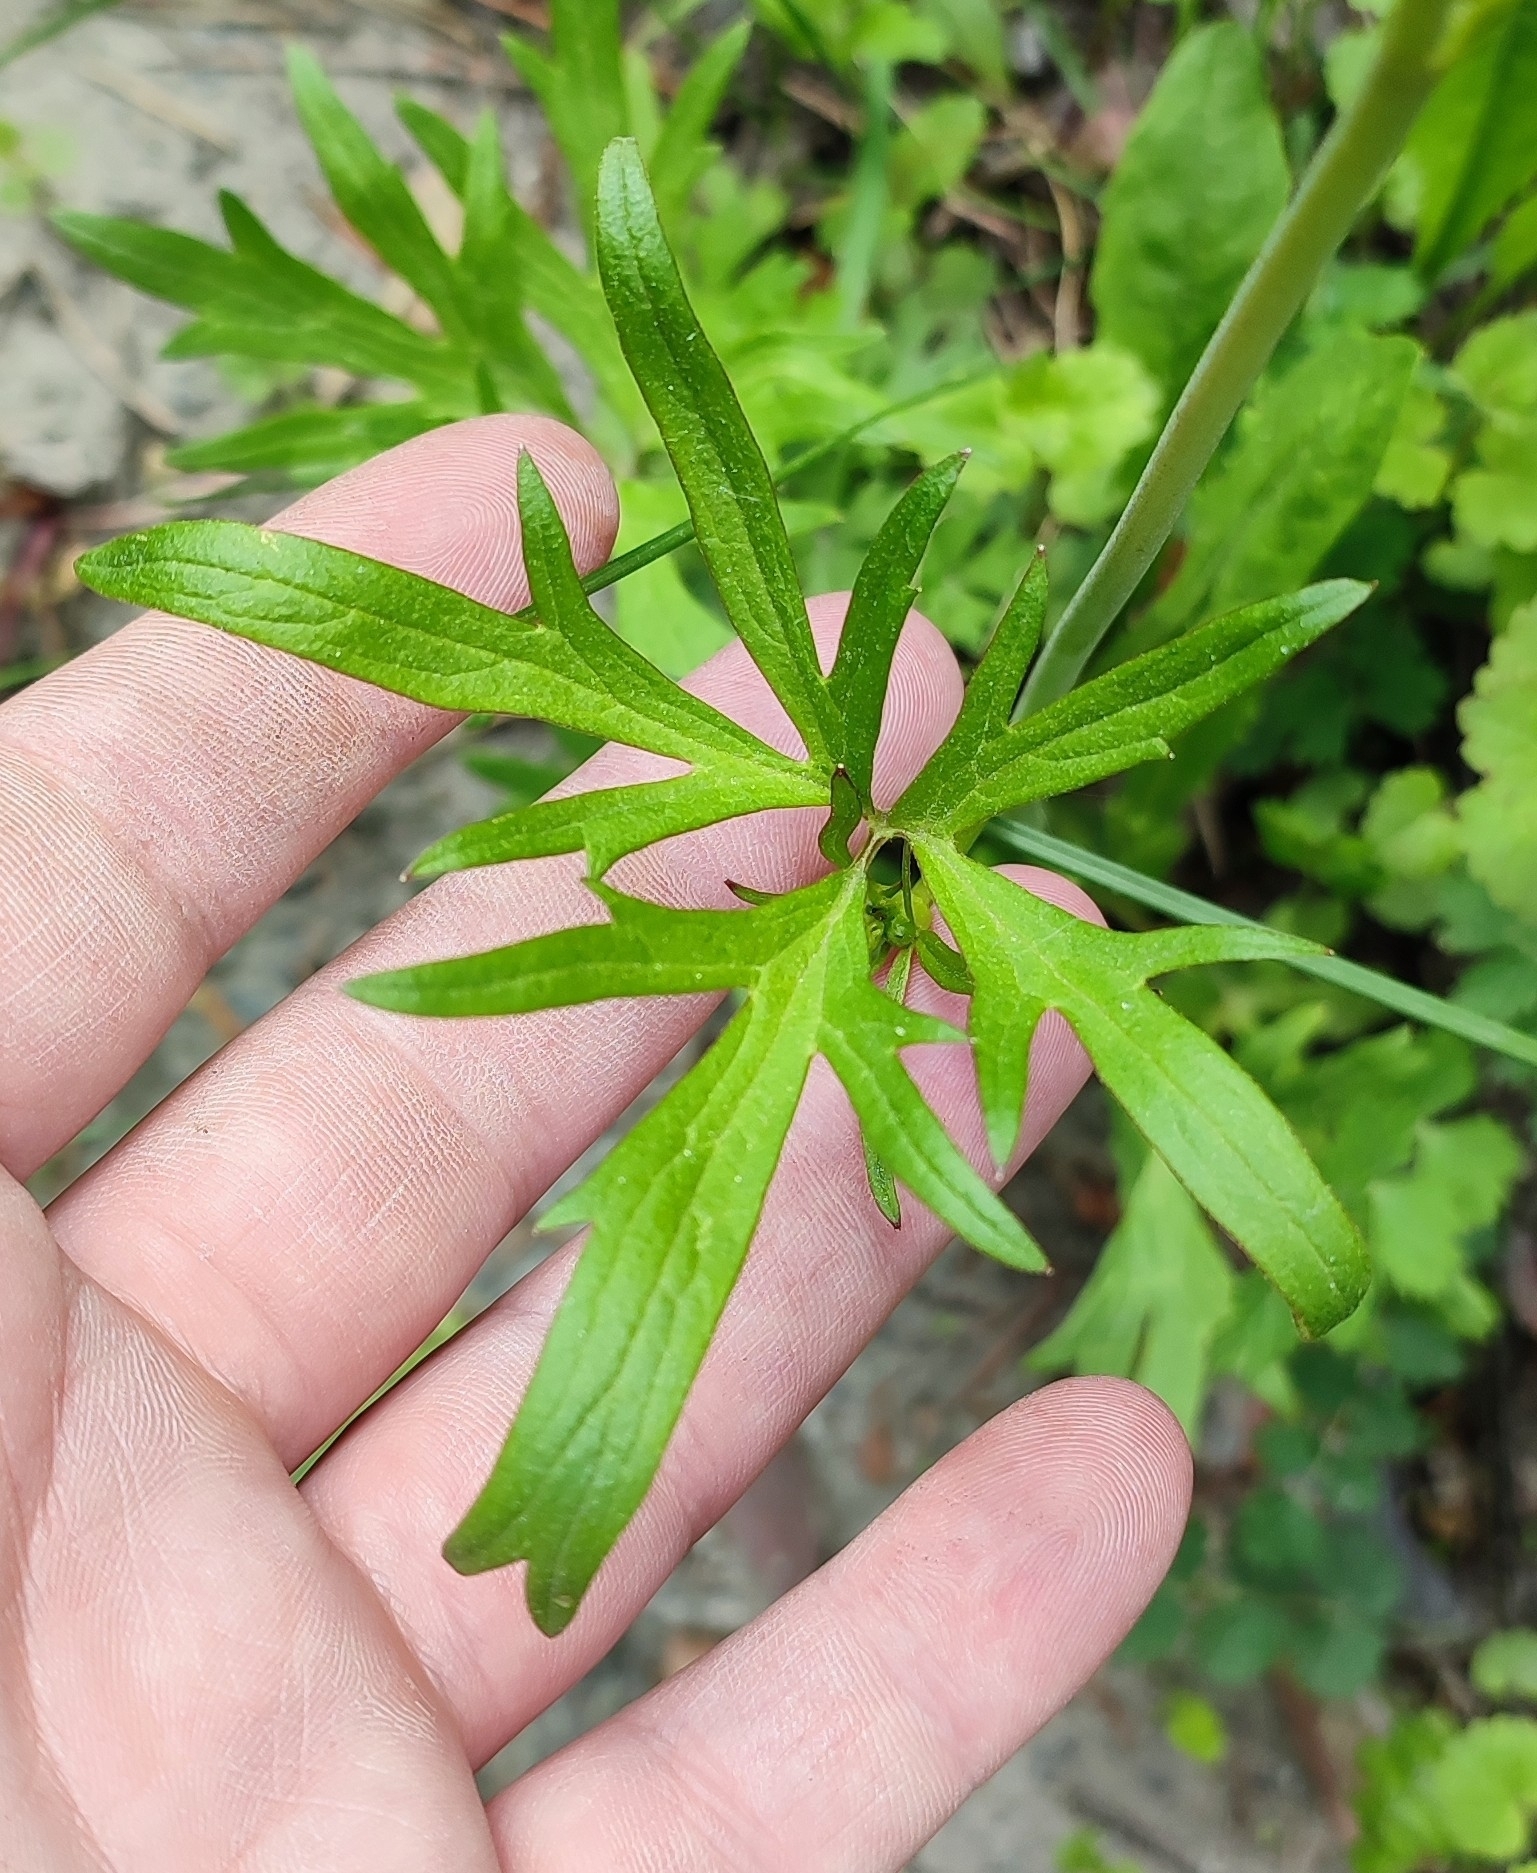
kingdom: Plantae
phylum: Tracheophyta
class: Magnoliopsida
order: Ranunculales
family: Ranunculaceae
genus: Ranunculus
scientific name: Ranunculus acris
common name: Meadow buttercup
